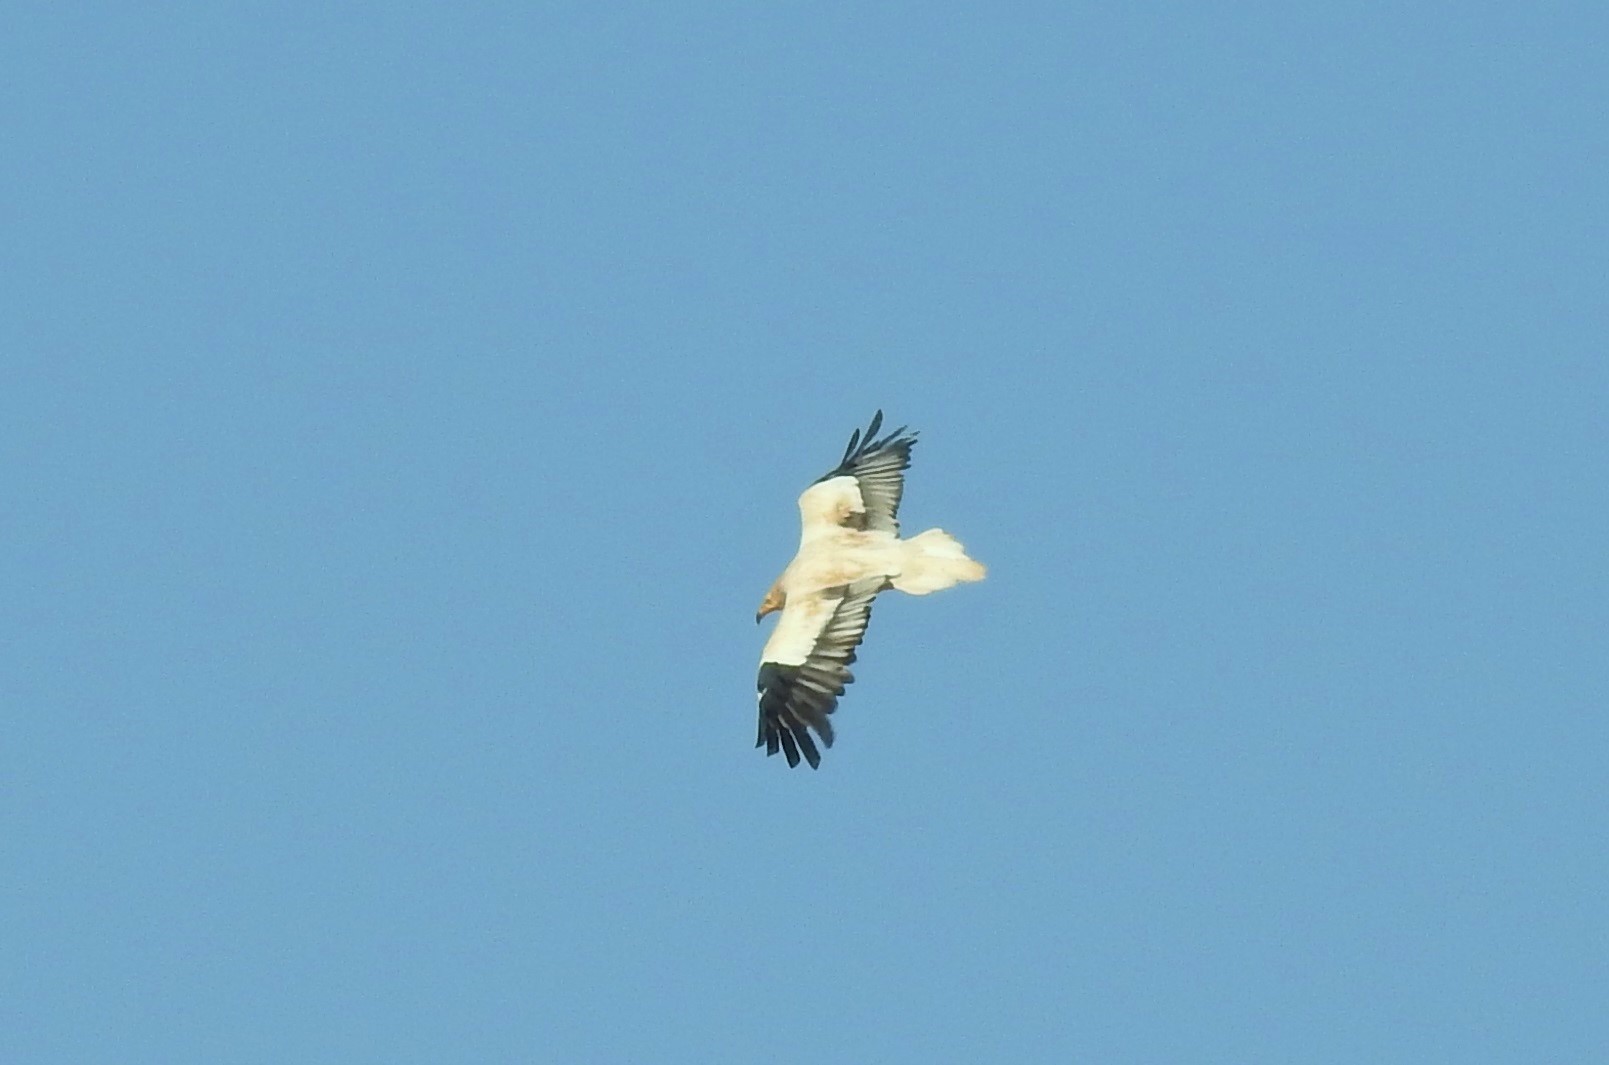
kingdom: Animalia
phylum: Chordata
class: Aves
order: Accipitriformes
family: Accipitridae
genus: Neophron
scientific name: Neophron percnopterus
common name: Egyptian vulture
